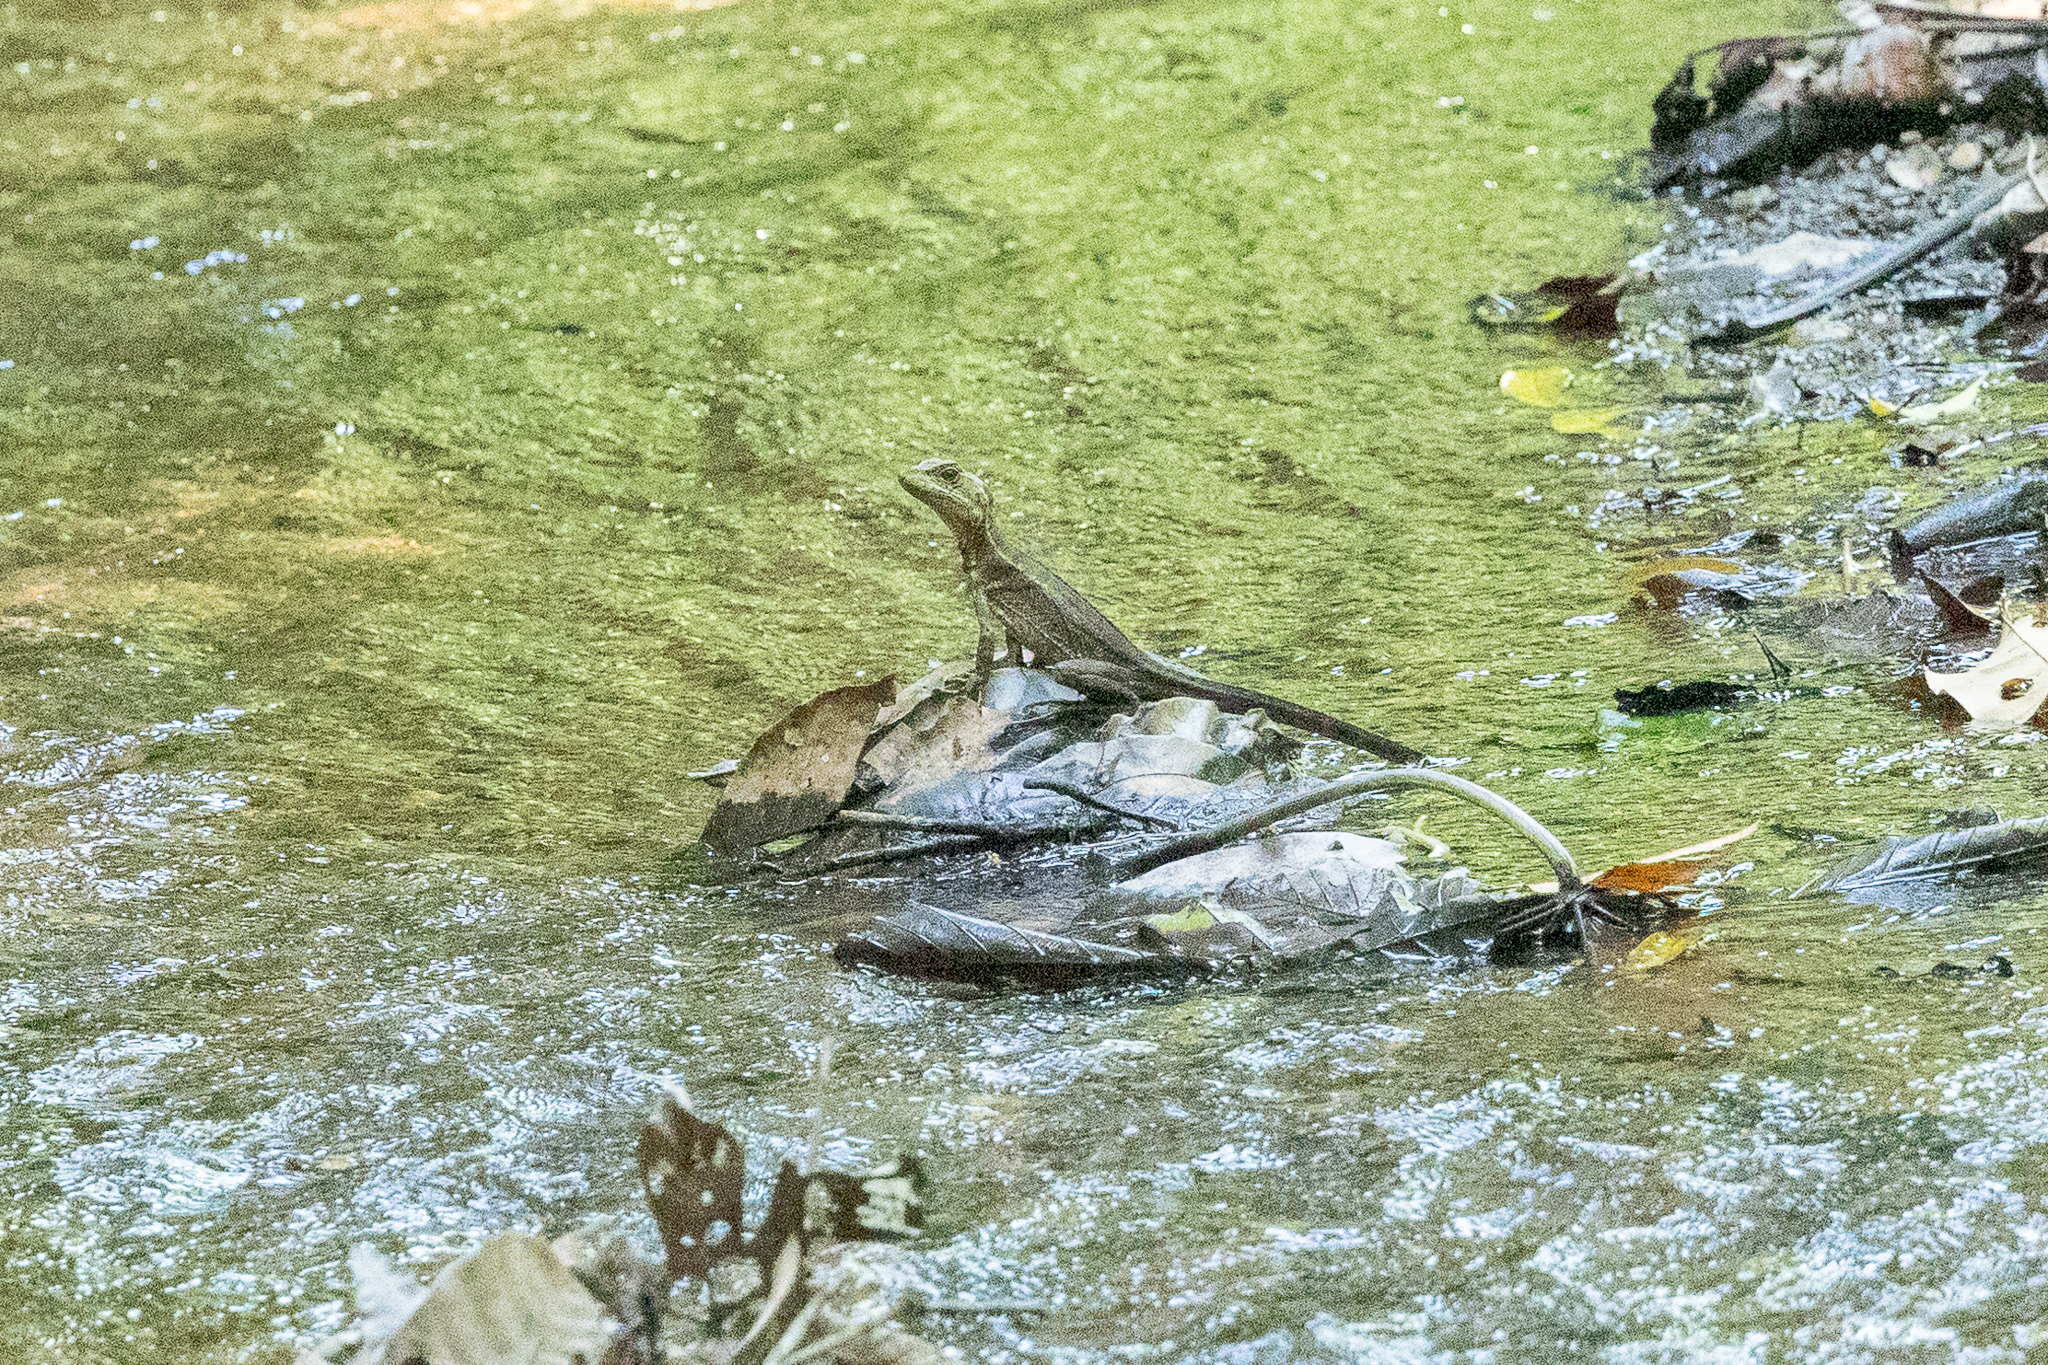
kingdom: Animalia
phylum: Chordata
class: Squamata
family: Corytophanidae
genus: Basiliscus
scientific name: Basiliscus basiliscus
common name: Common basilisk
